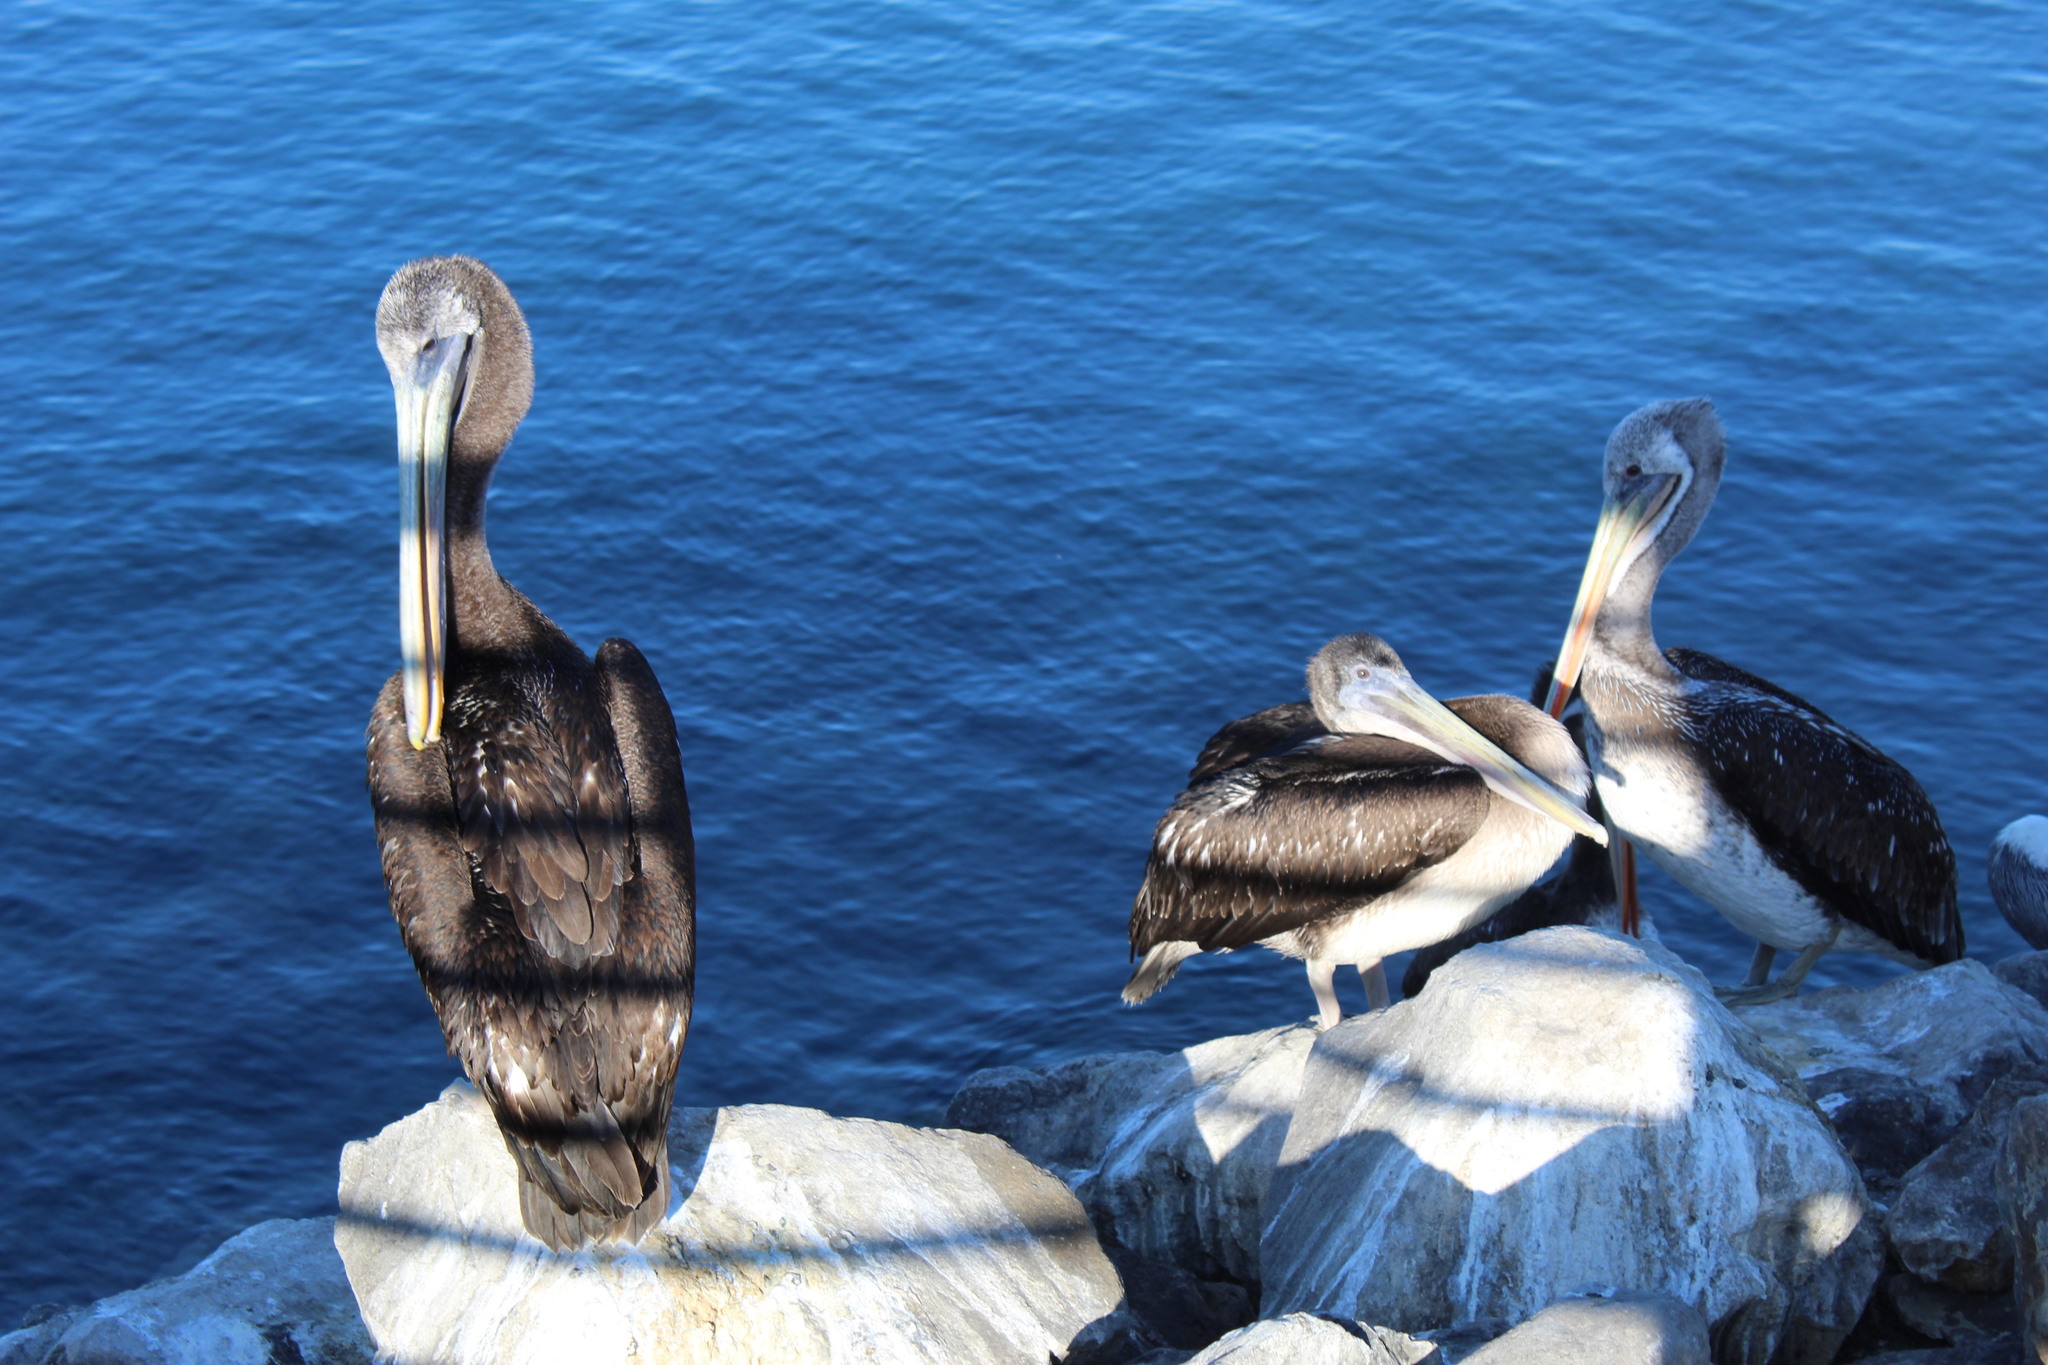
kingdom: Animalia
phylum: Chordata
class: Aves
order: Pelecaniformes
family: Pelecanidae
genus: Pelecanus
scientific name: Pelecanus thagus
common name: Peruvian pelican
